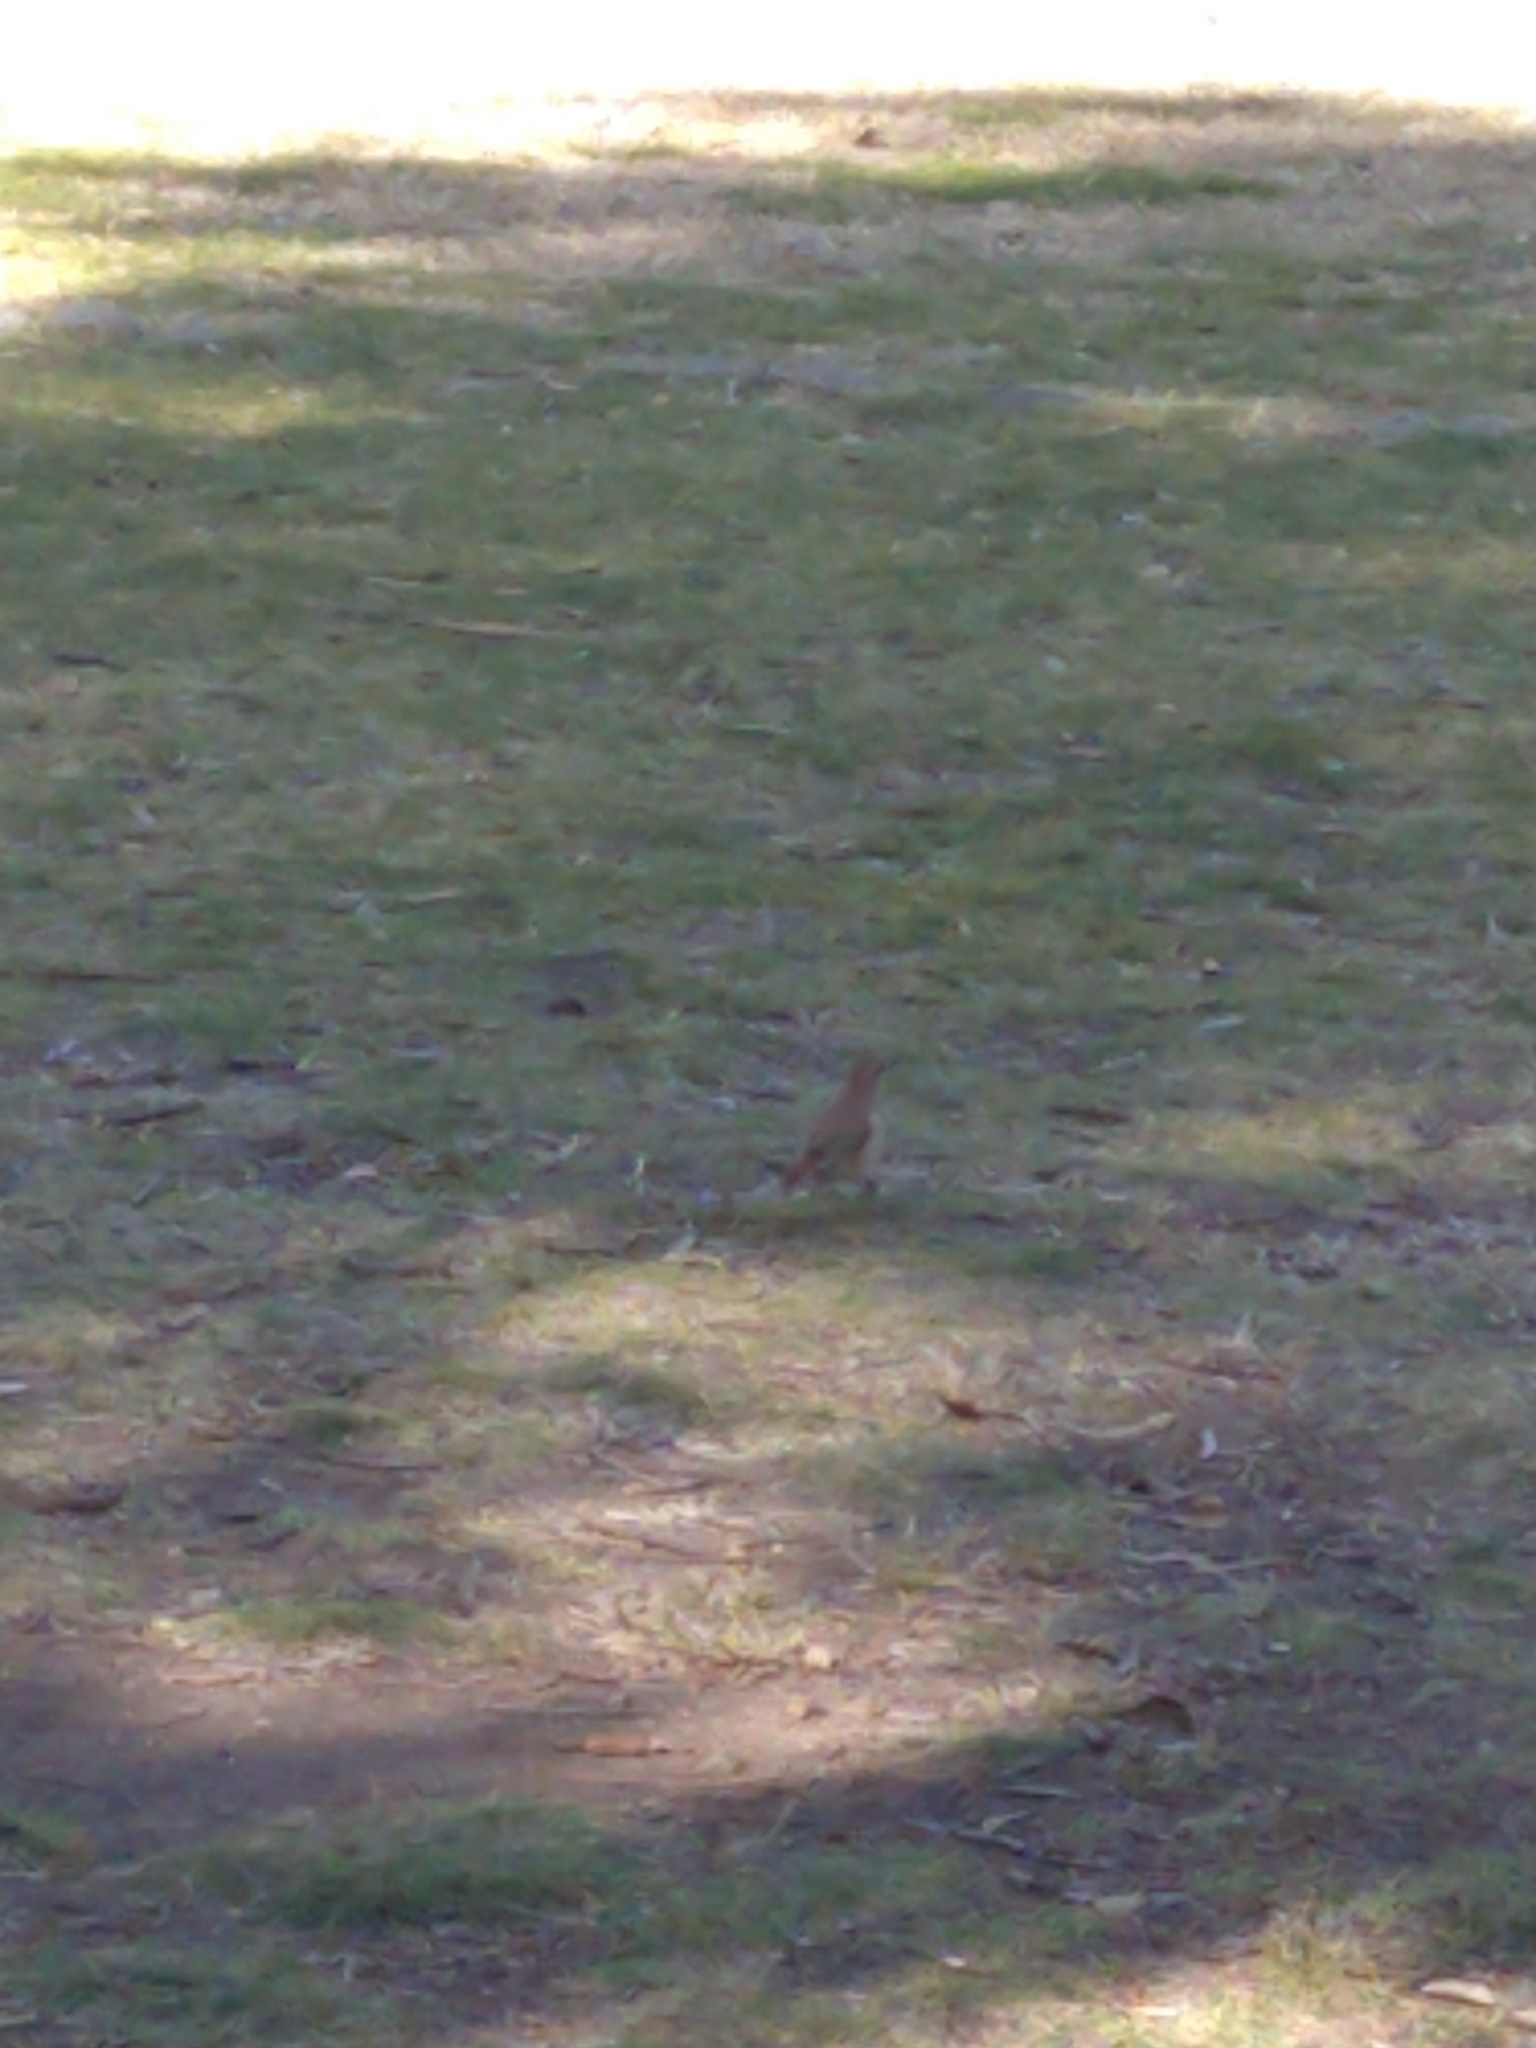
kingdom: Animalia
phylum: Chordata
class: Aves
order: Passeriformes
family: Furnariidae
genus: Furnarius
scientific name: Furnarius rufus
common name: Rufous hornero
